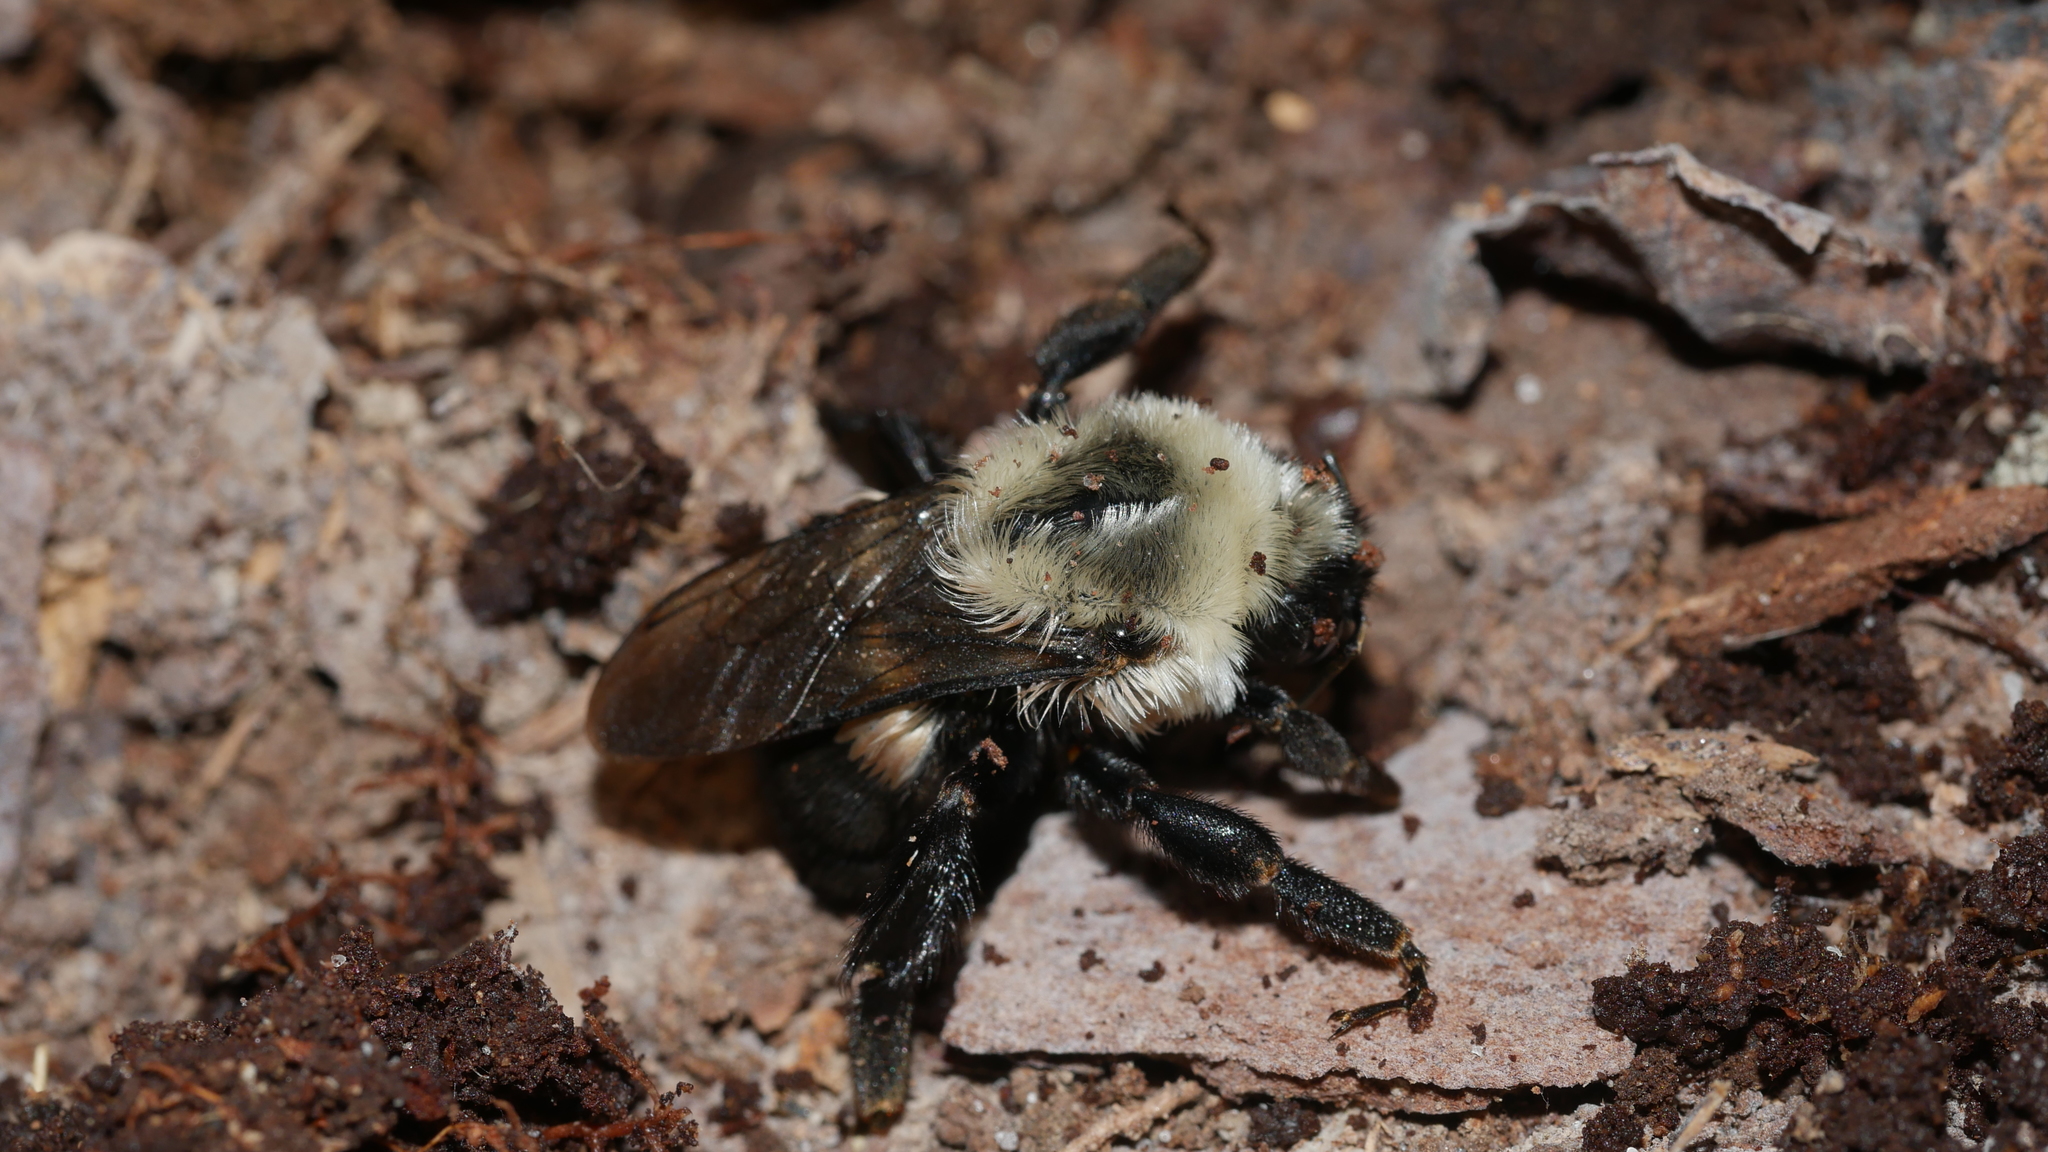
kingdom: Animalia
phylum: Arthropoda
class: Insecta
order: Hymenoptera
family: Apidae
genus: Bombus
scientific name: Bombus griseocollis
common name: Brown-belted bumble bee
